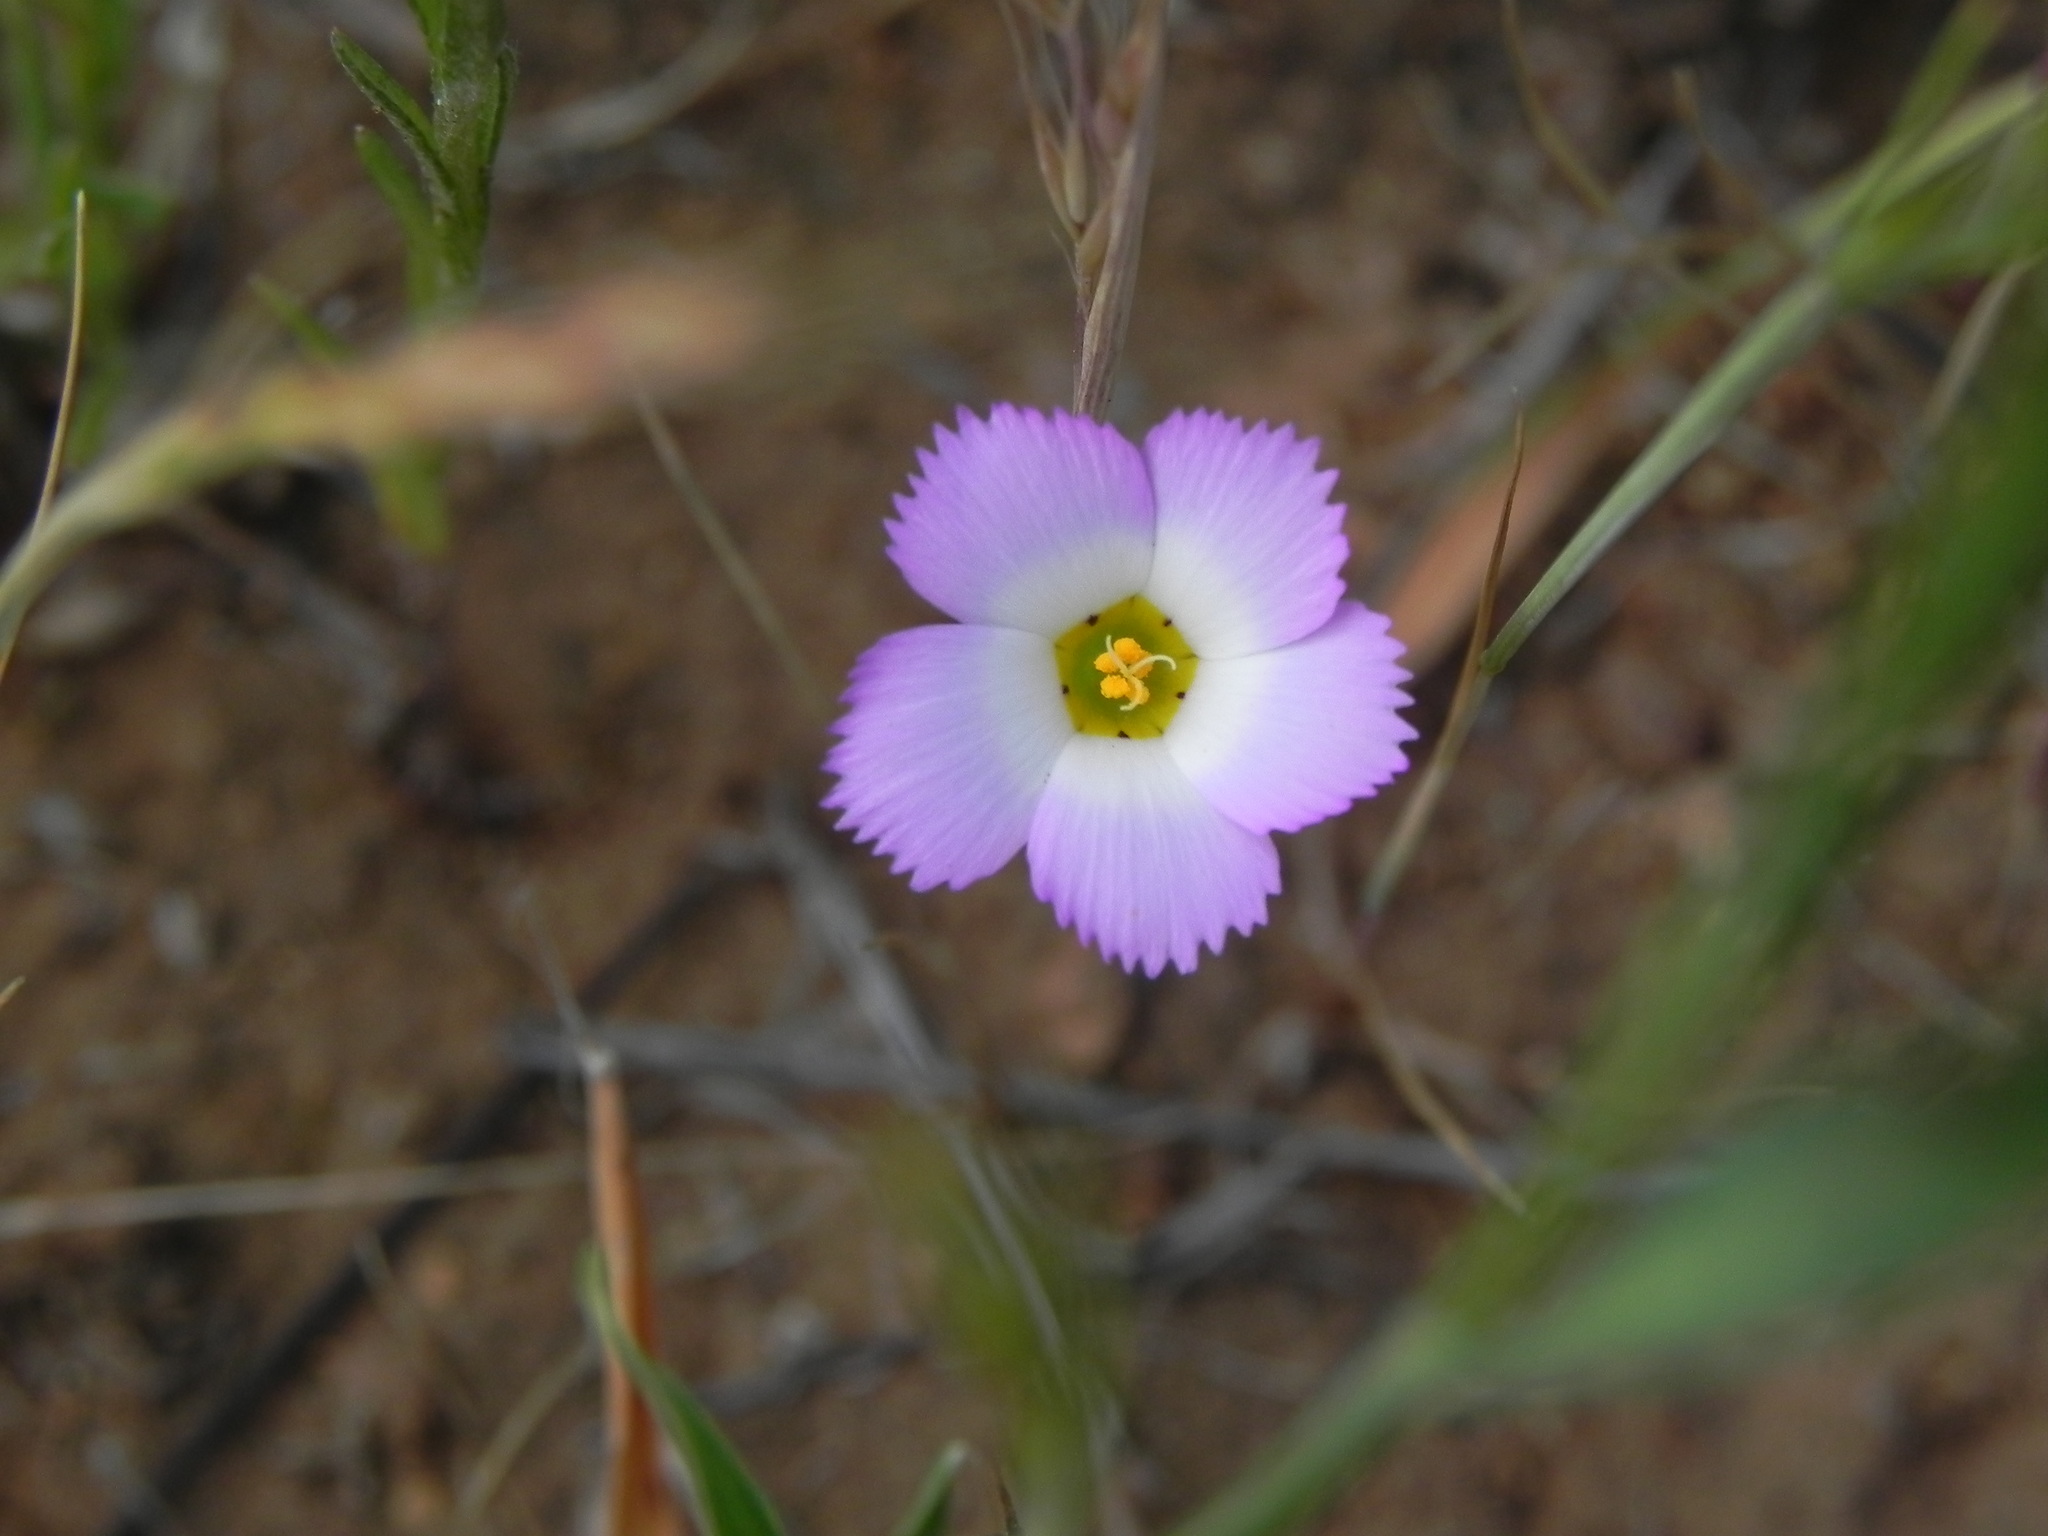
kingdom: Plantae
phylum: Tracheophyta
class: Magnoliopsida
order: Ericales
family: Polemoniaceae
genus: Linanthus
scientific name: Linanthus dianthiflorus
